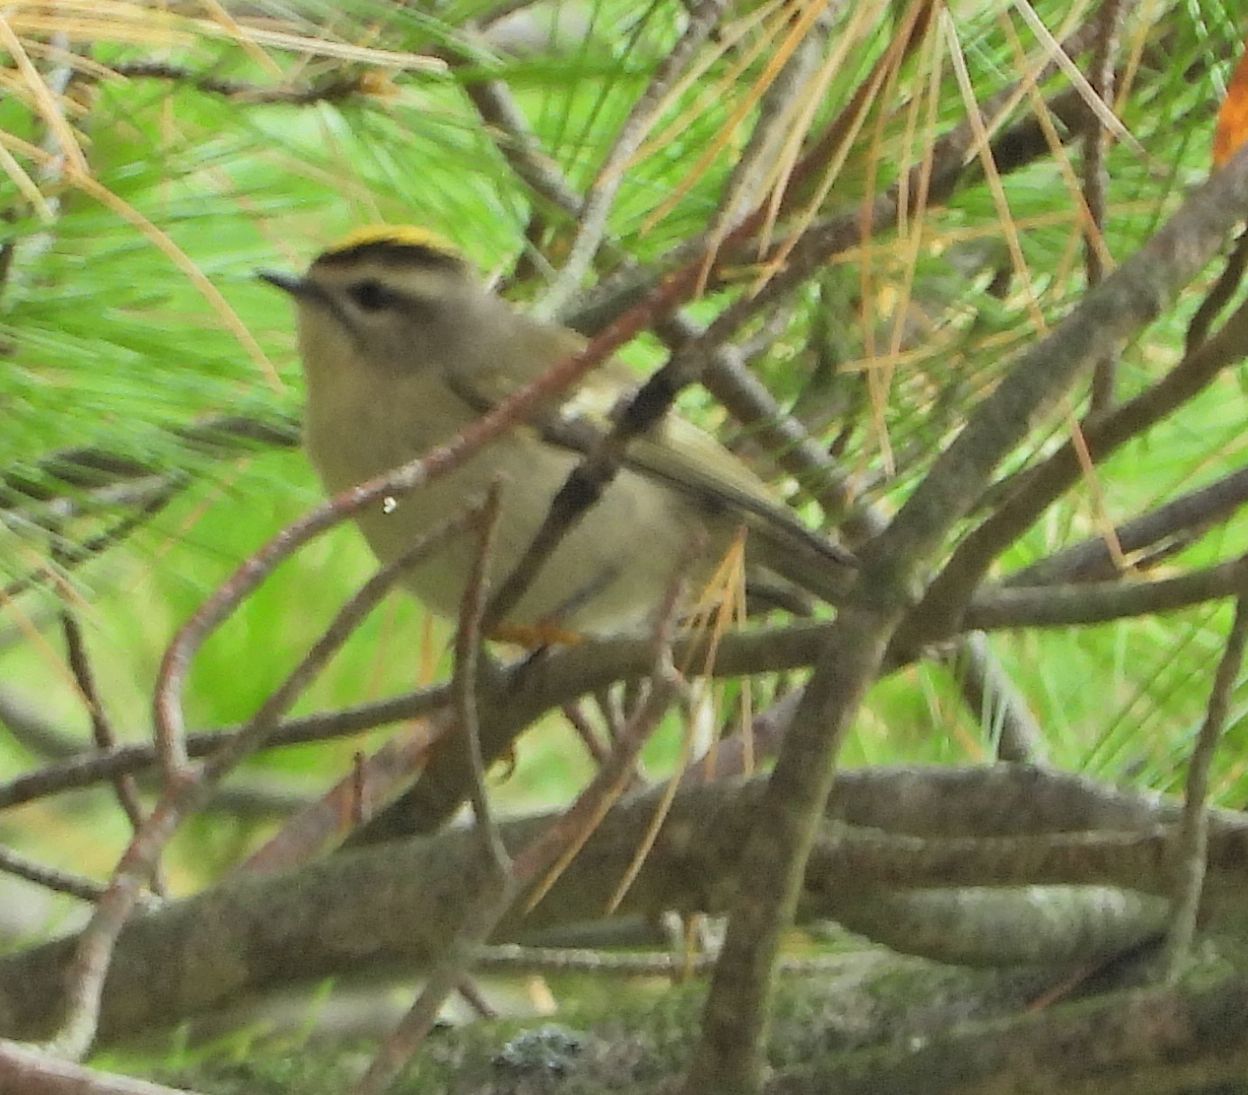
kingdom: Animalia
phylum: Chordata
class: Aves
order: Passeriformes
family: Regulidae
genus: Regulus
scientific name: Regulus satrapa
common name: Golden-crowned kinglet
